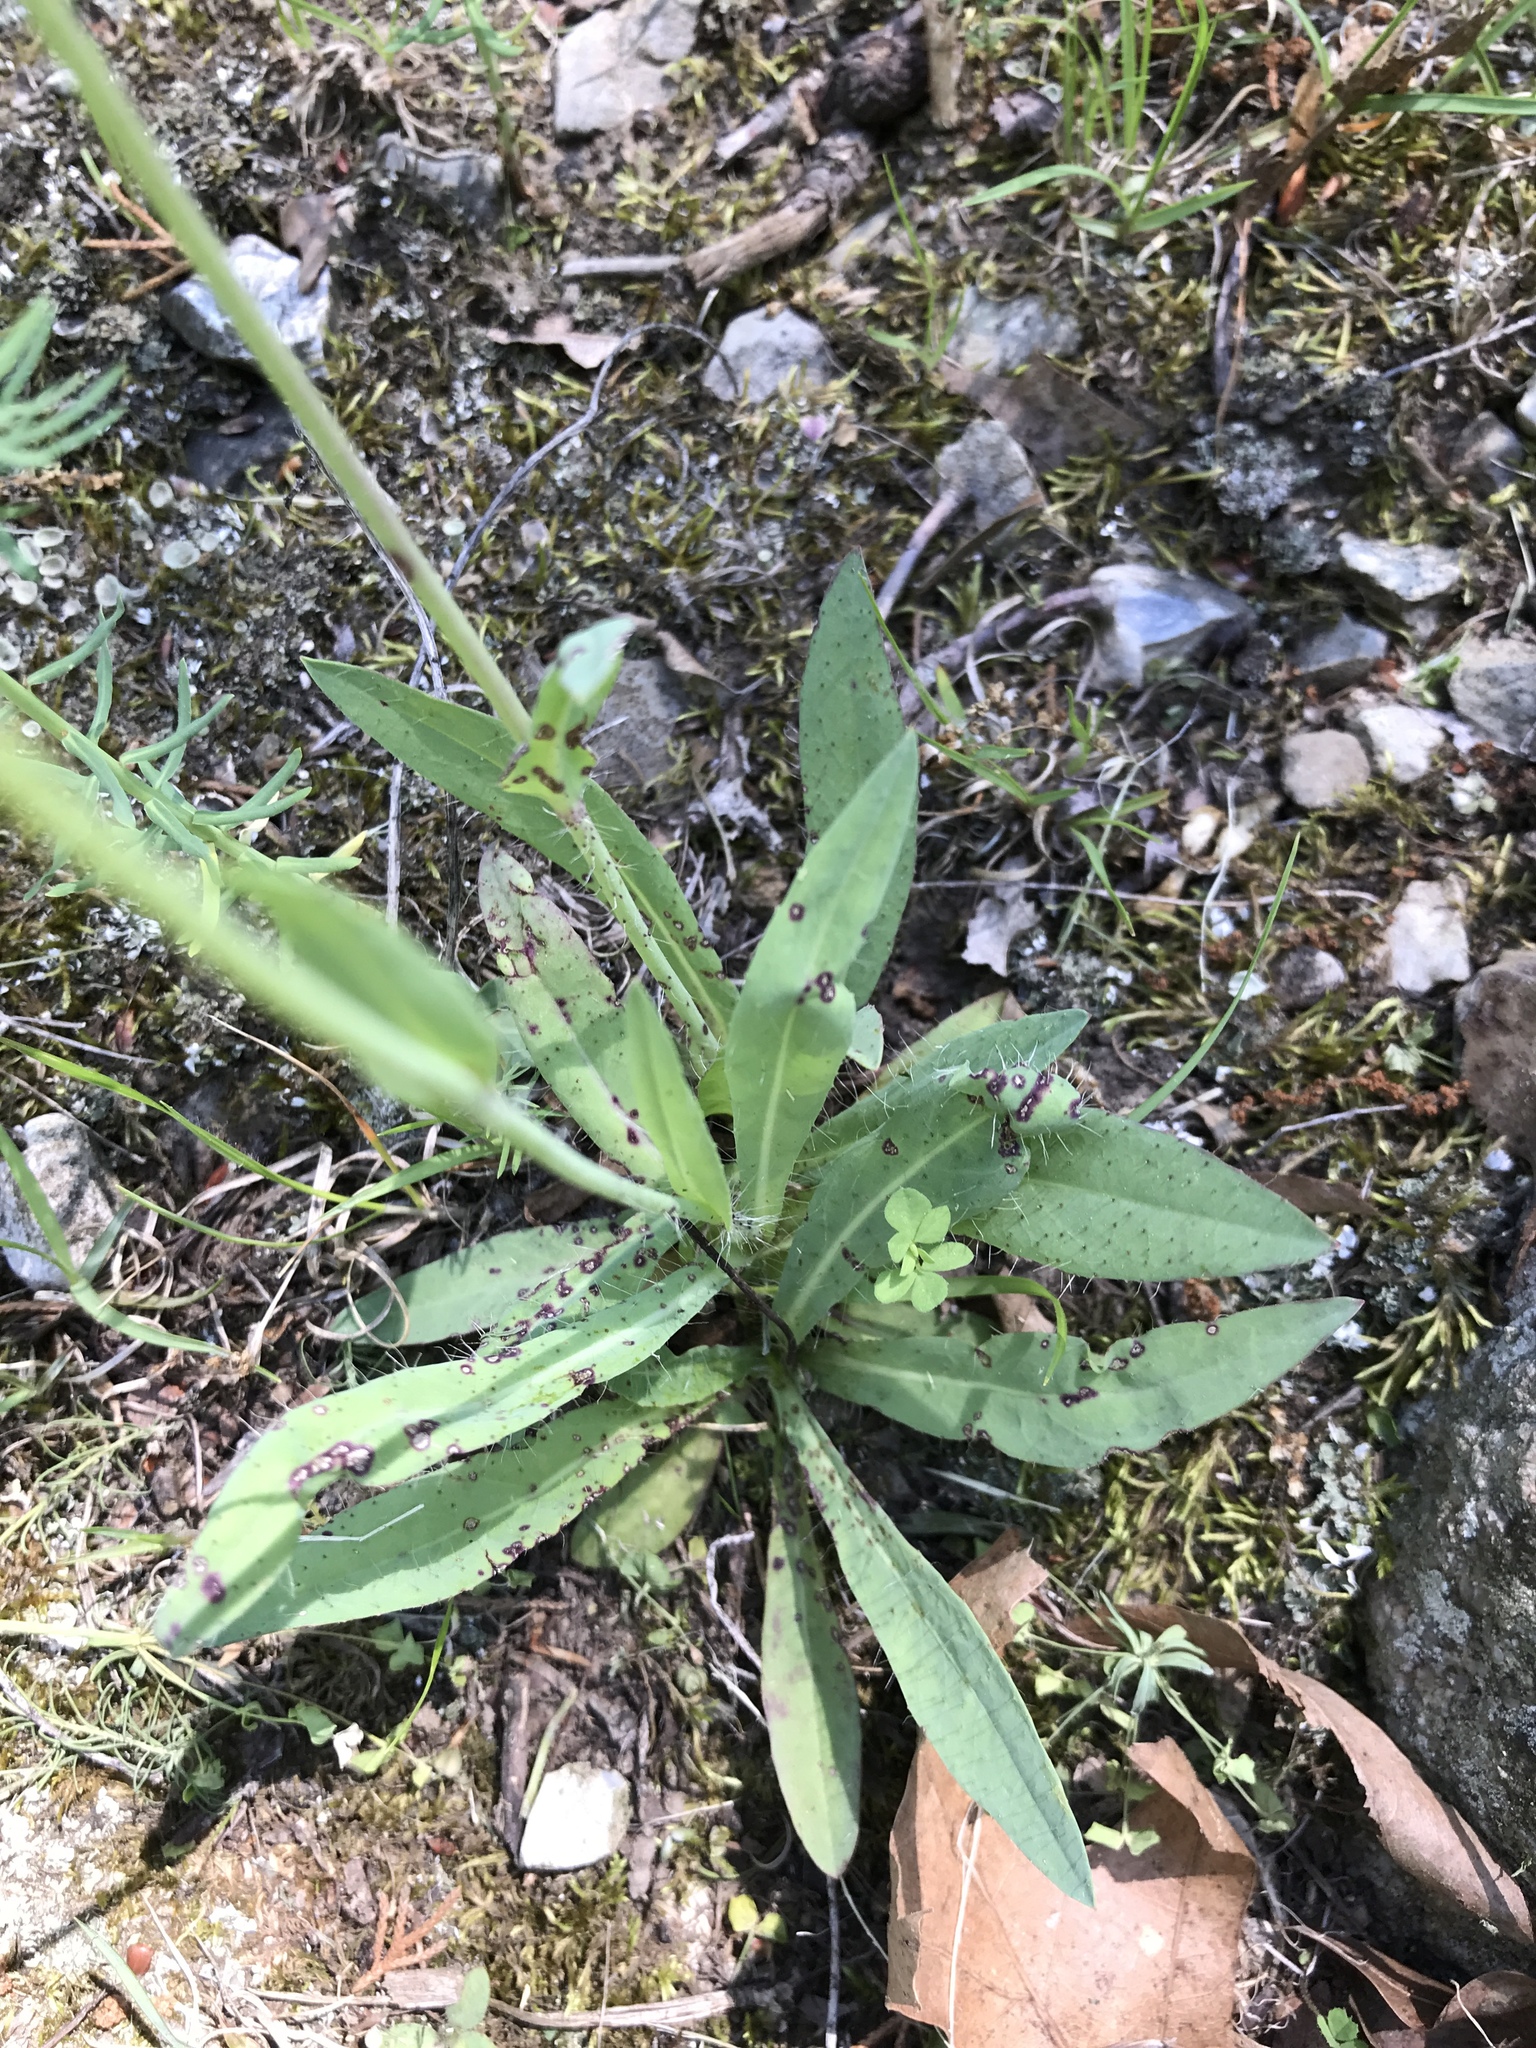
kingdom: Plantae
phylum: Tracheophyta
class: Magnoliopsida
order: Asterales
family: Asteraceae
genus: Pilosella
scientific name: Pilosella piloselloides
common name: Glaucous king-devil
